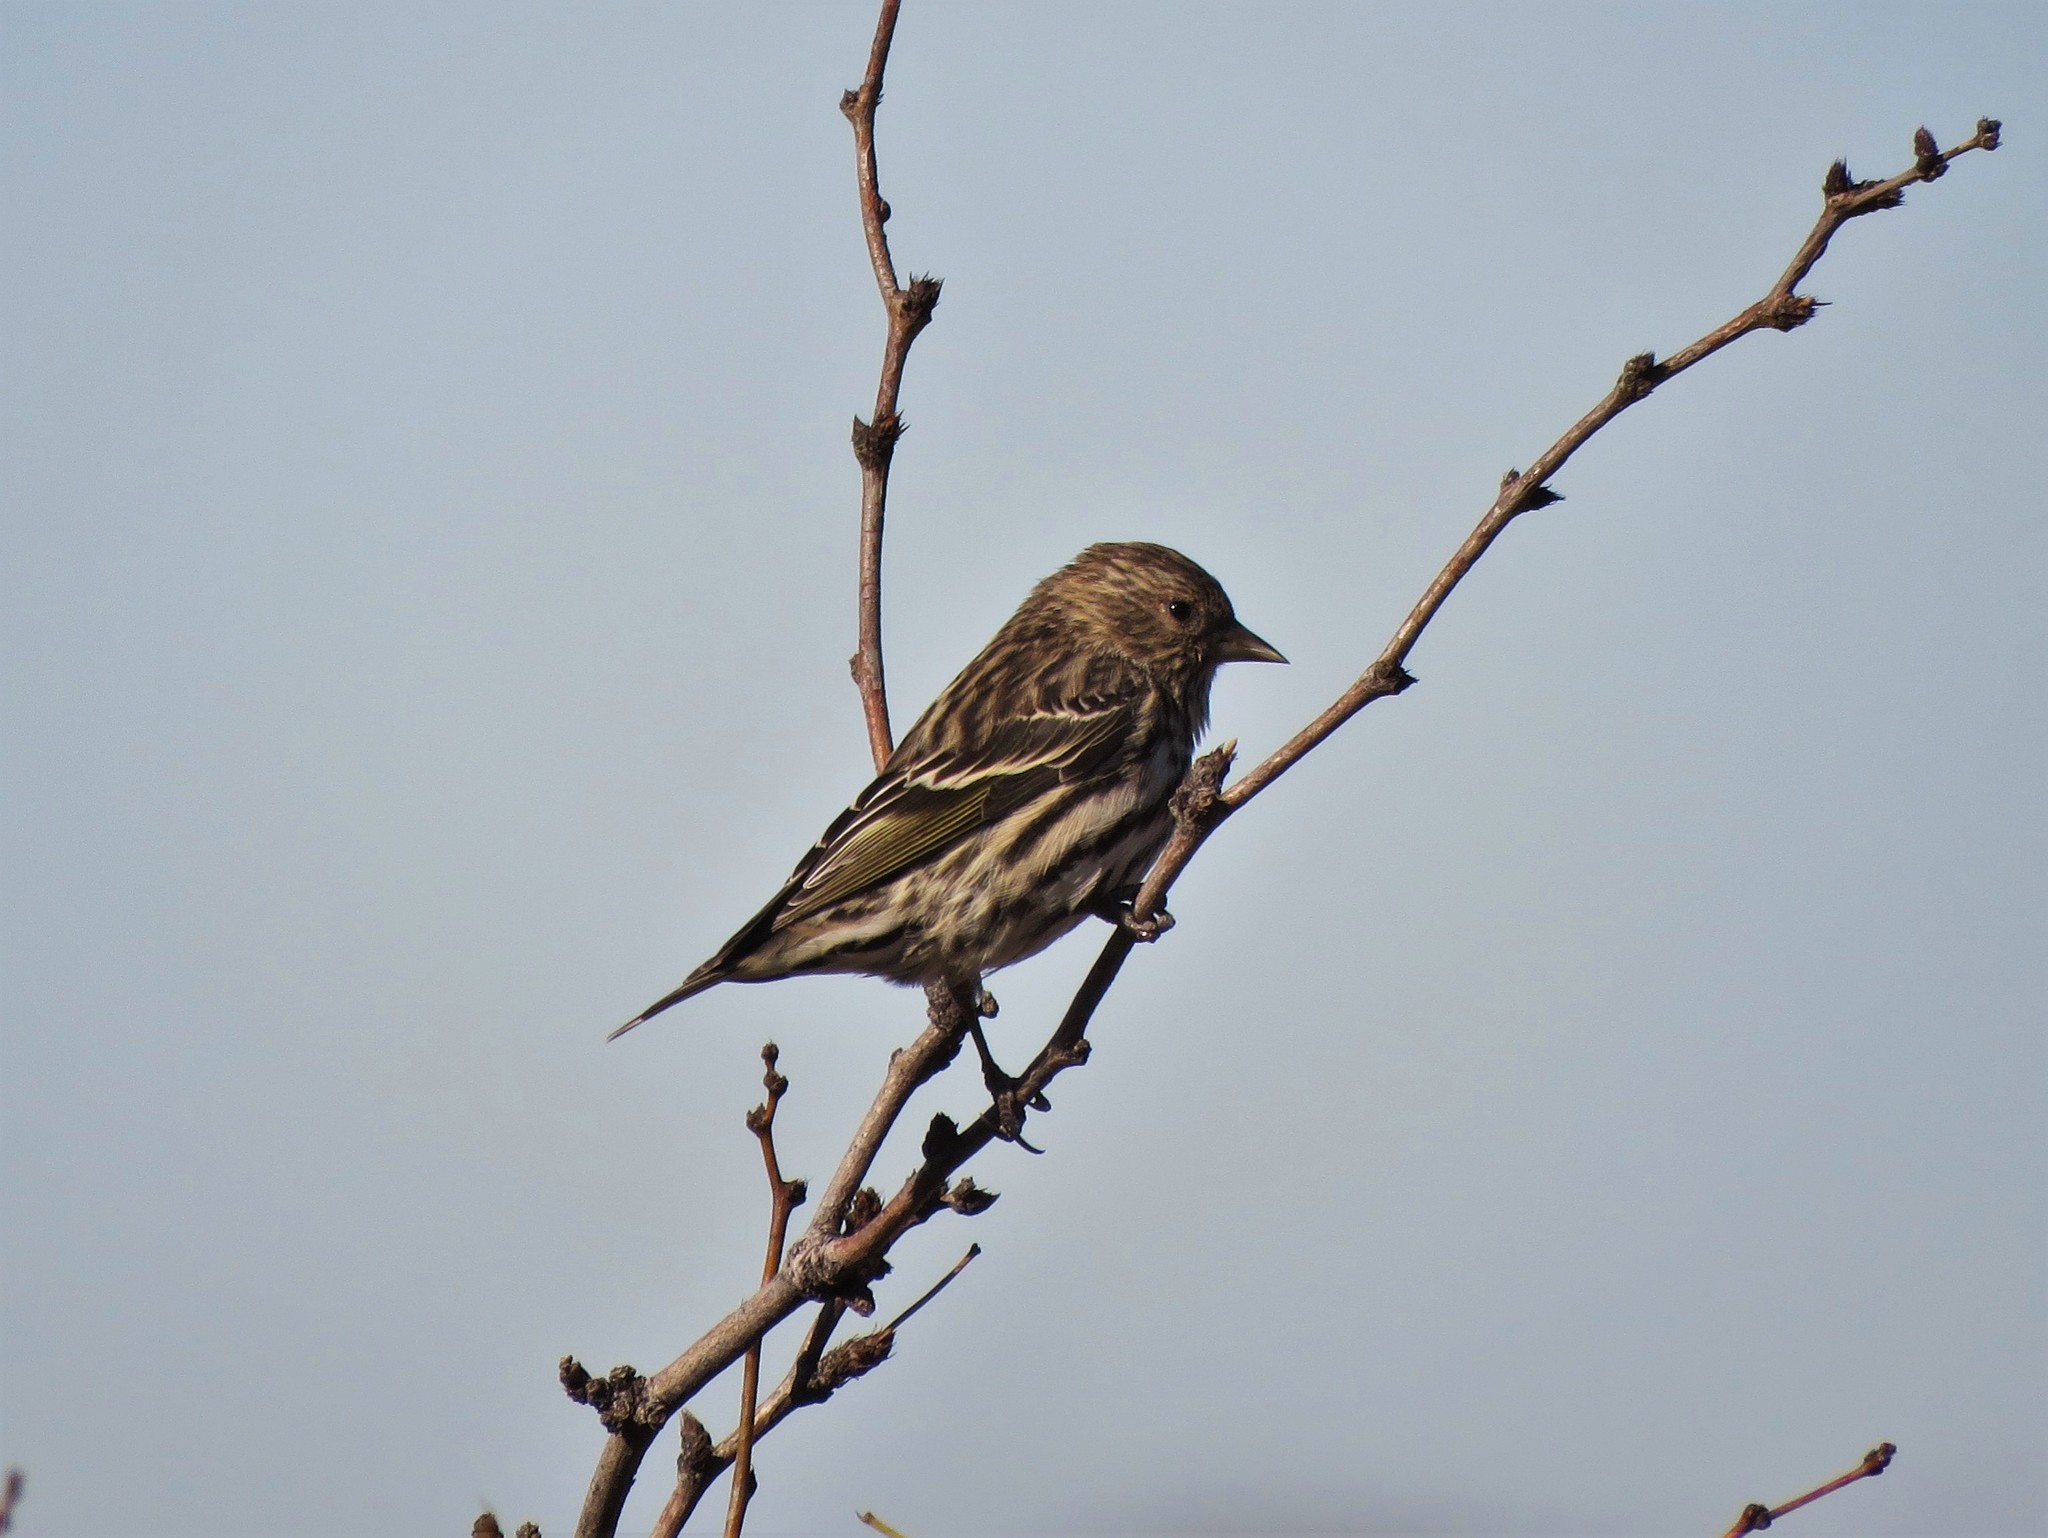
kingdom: Animalia
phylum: Chordata
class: Aves
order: Passeriformes
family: Fringillidae
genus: Spinus
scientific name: Spinus pinus
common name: Pine siskin
